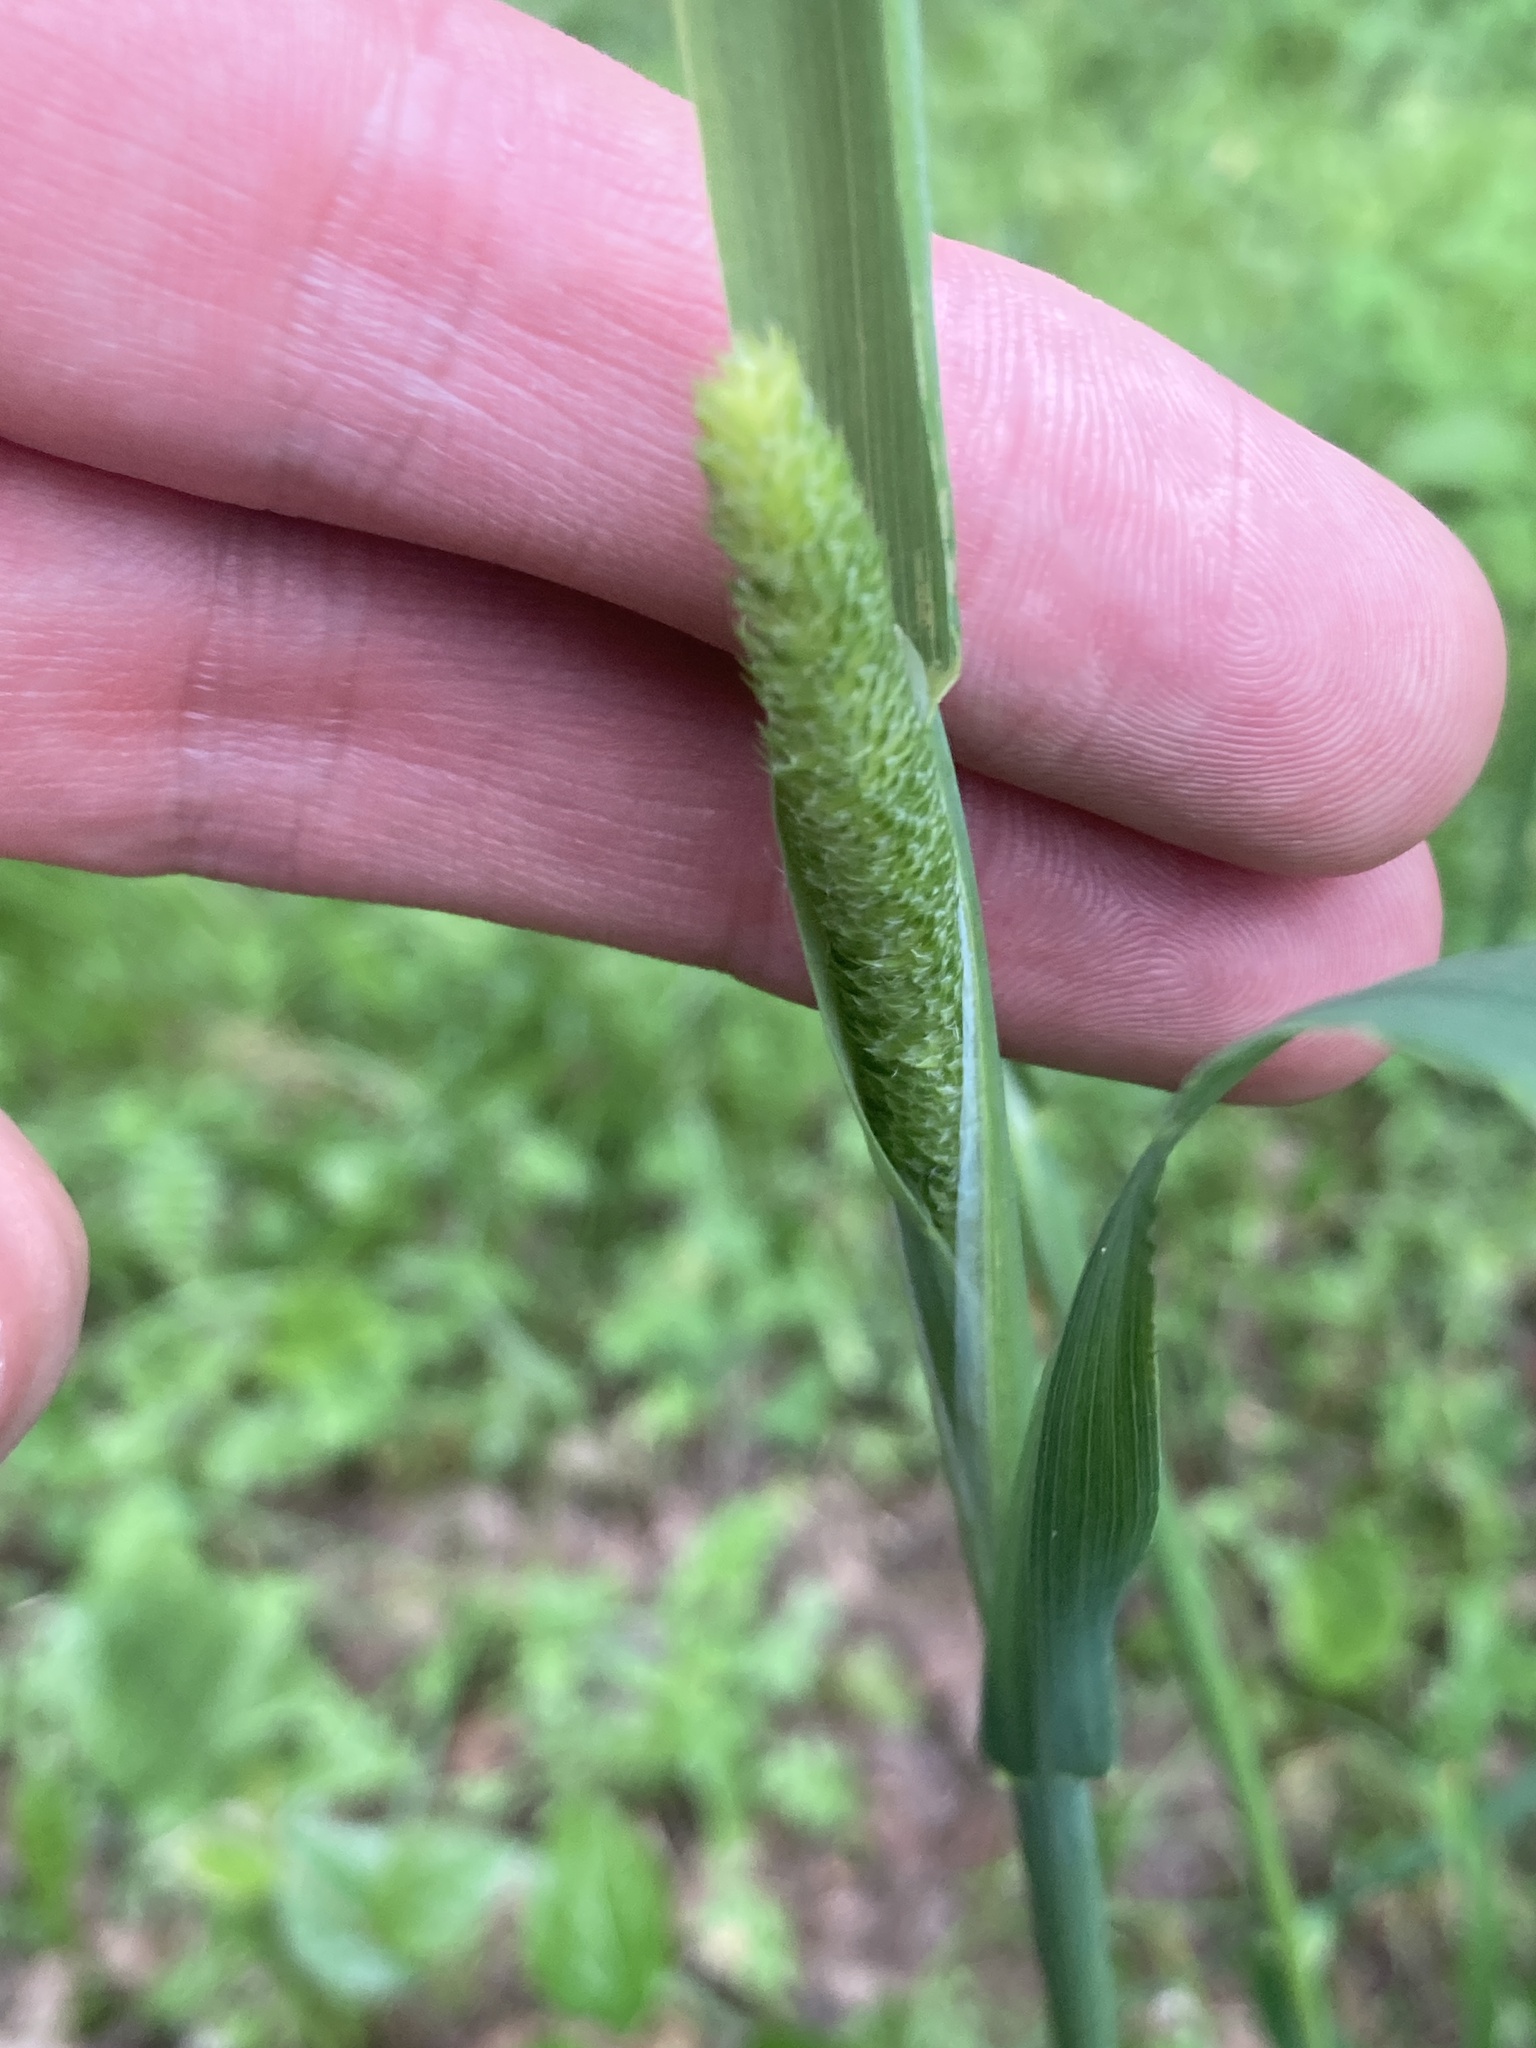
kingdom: Plantae
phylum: Tracheophyta
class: Liliopsida
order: Poales
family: Poaceae
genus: Phleum
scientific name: Phleum pratense
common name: Timothy grass
